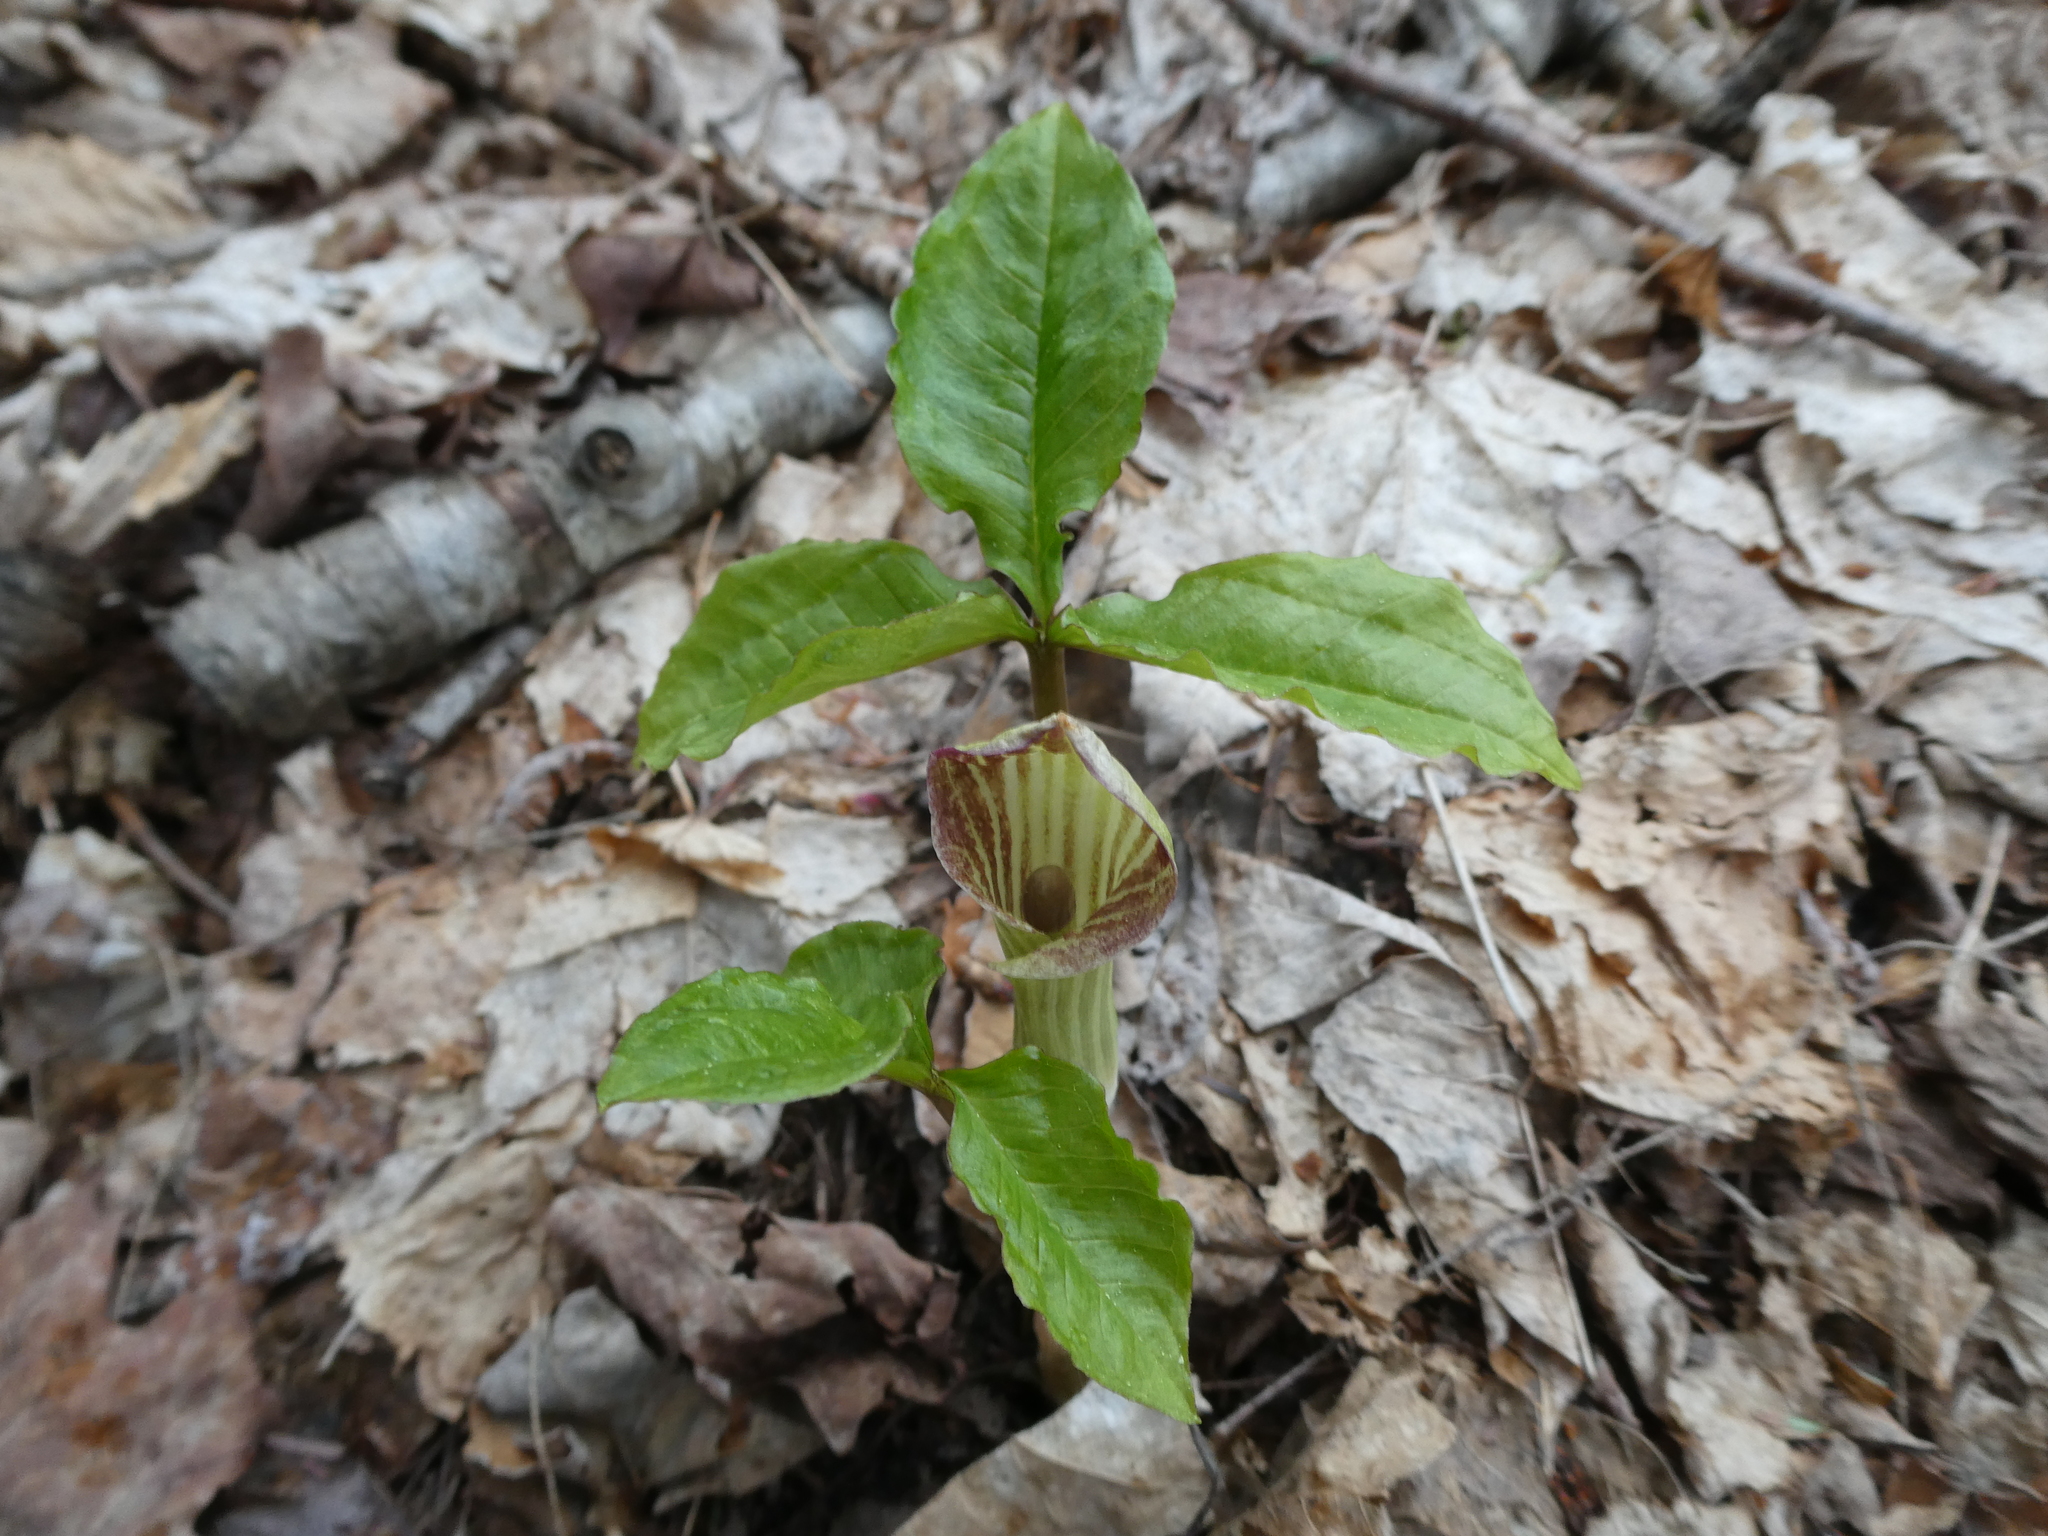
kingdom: Plantae
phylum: Tracheophyta
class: Liliopsida
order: Alismatales
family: Araceae
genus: Arisaema
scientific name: Arisaema triphyllum
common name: Jack-in-the-pulpit
